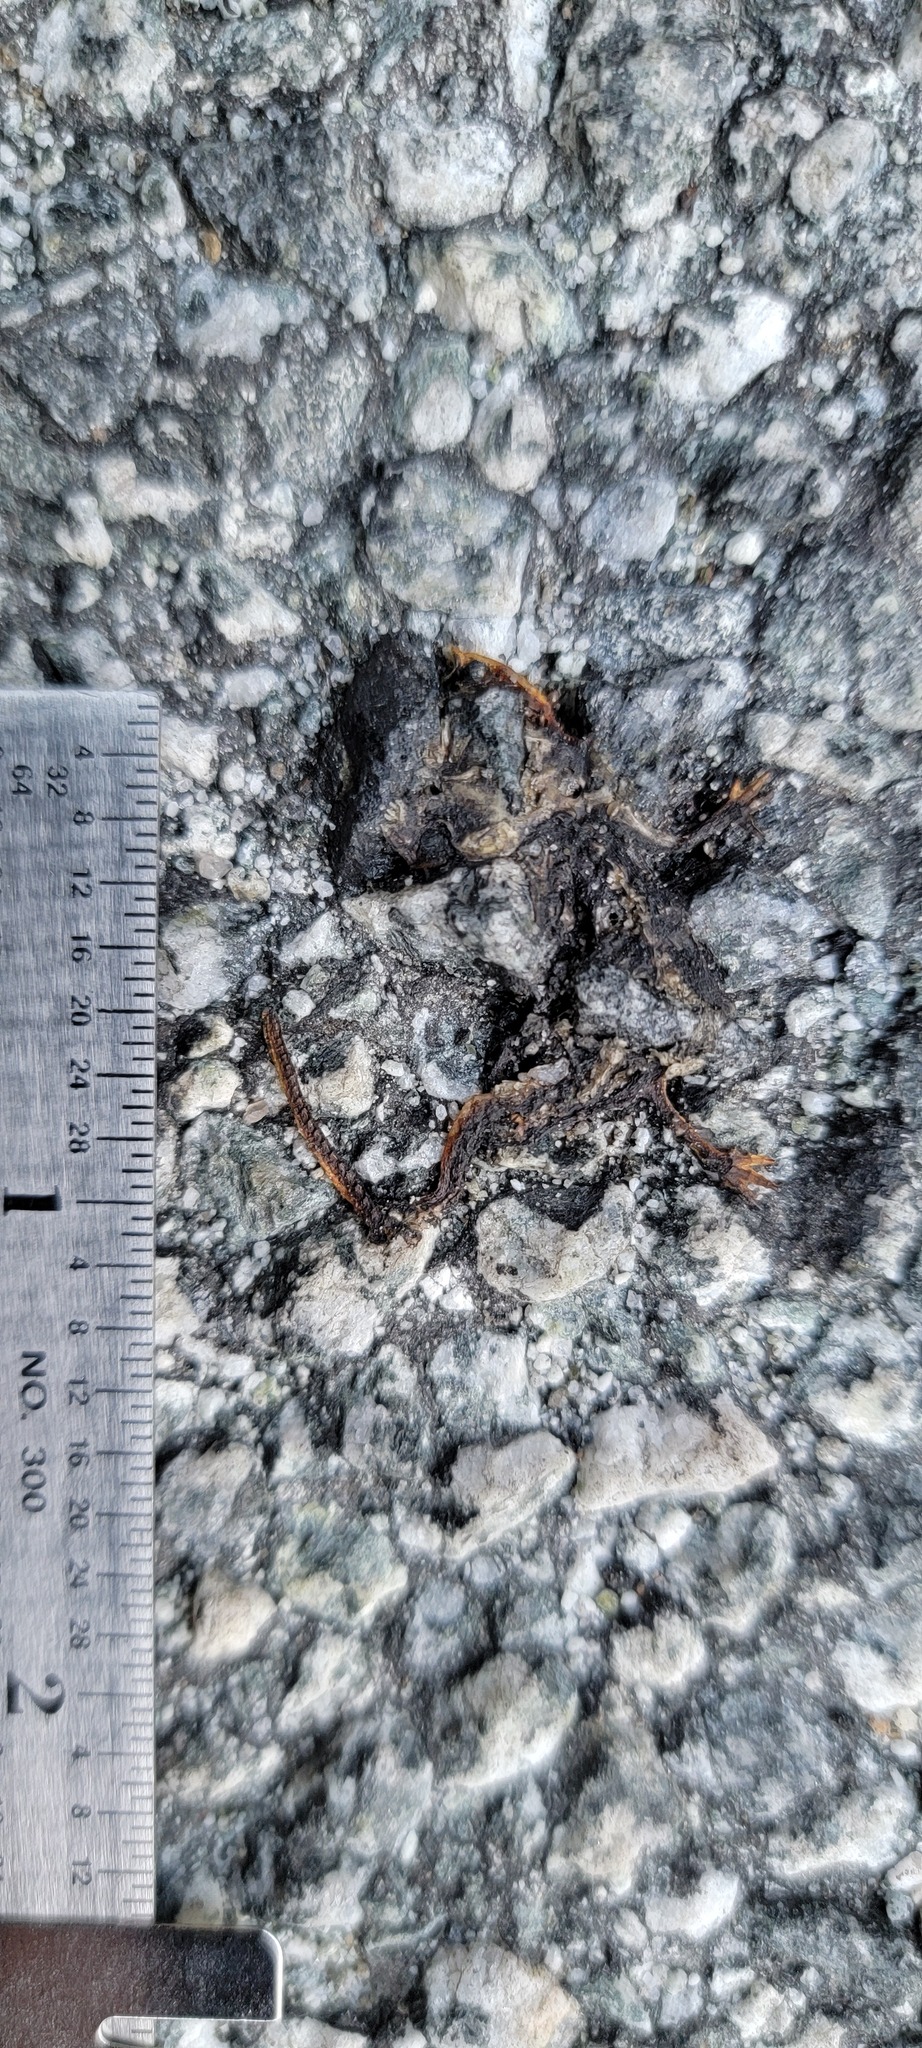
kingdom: Animalia
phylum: Chordata
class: Amphibia
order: Caudata
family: Salamandridae
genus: Taricha
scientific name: Taricha
